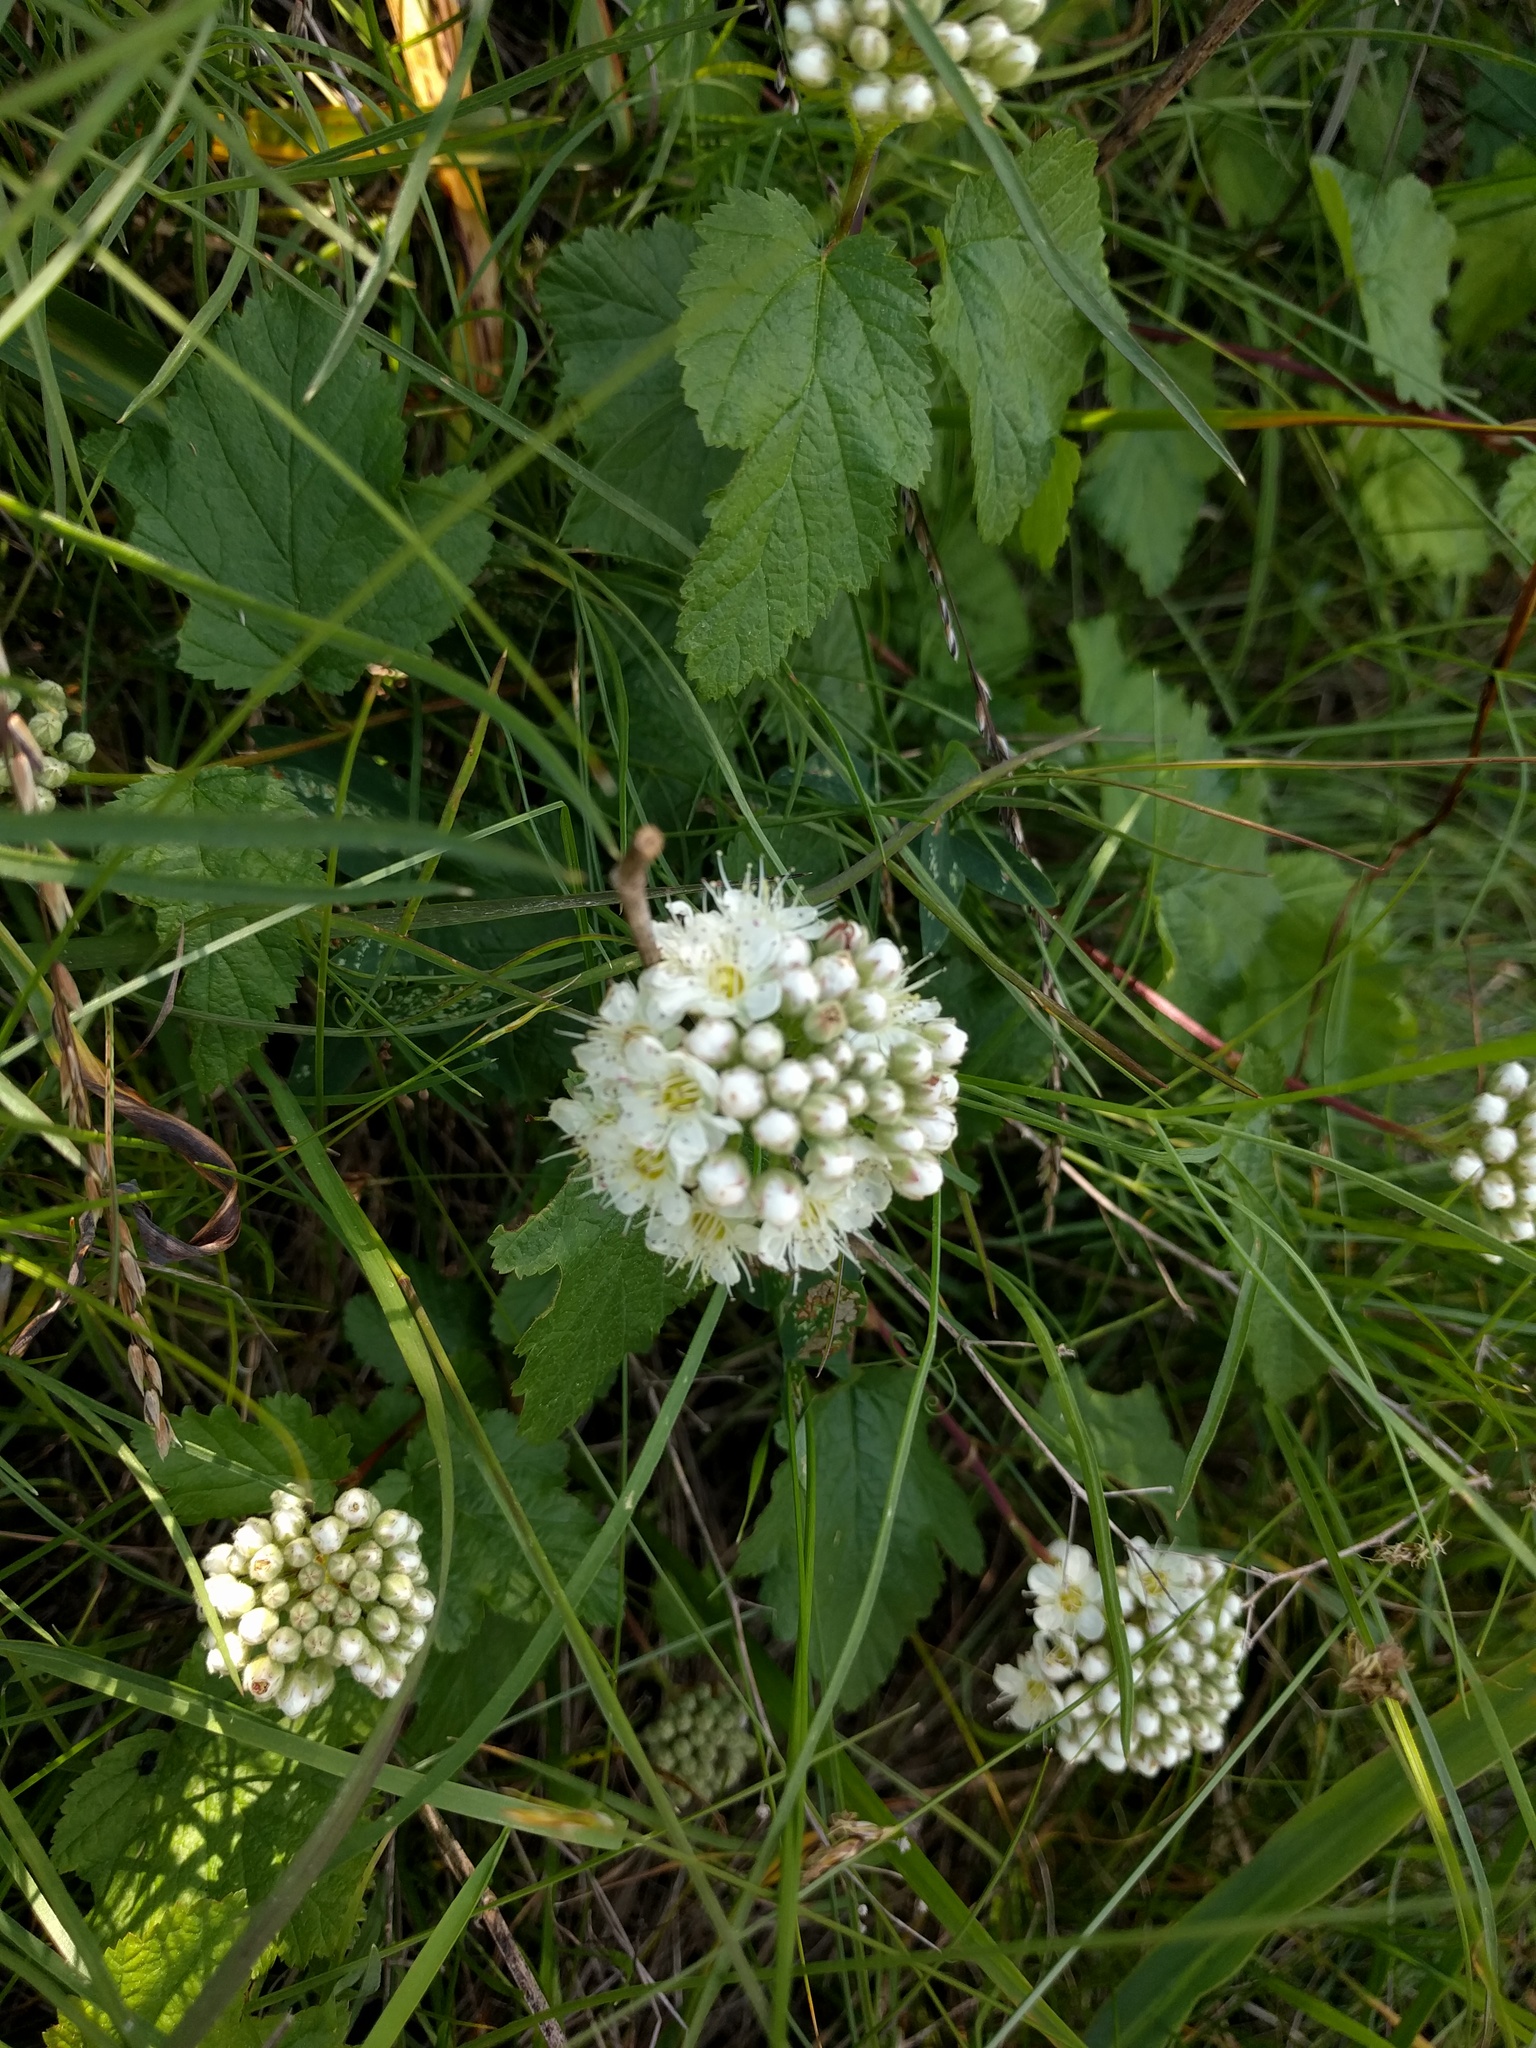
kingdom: Plantae
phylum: Tracheophyta
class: Magnoliopsida
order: Rosales
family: Rosaceae
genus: Physocarpus
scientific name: Physocarpus capitatus
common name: Pacific ninebark
